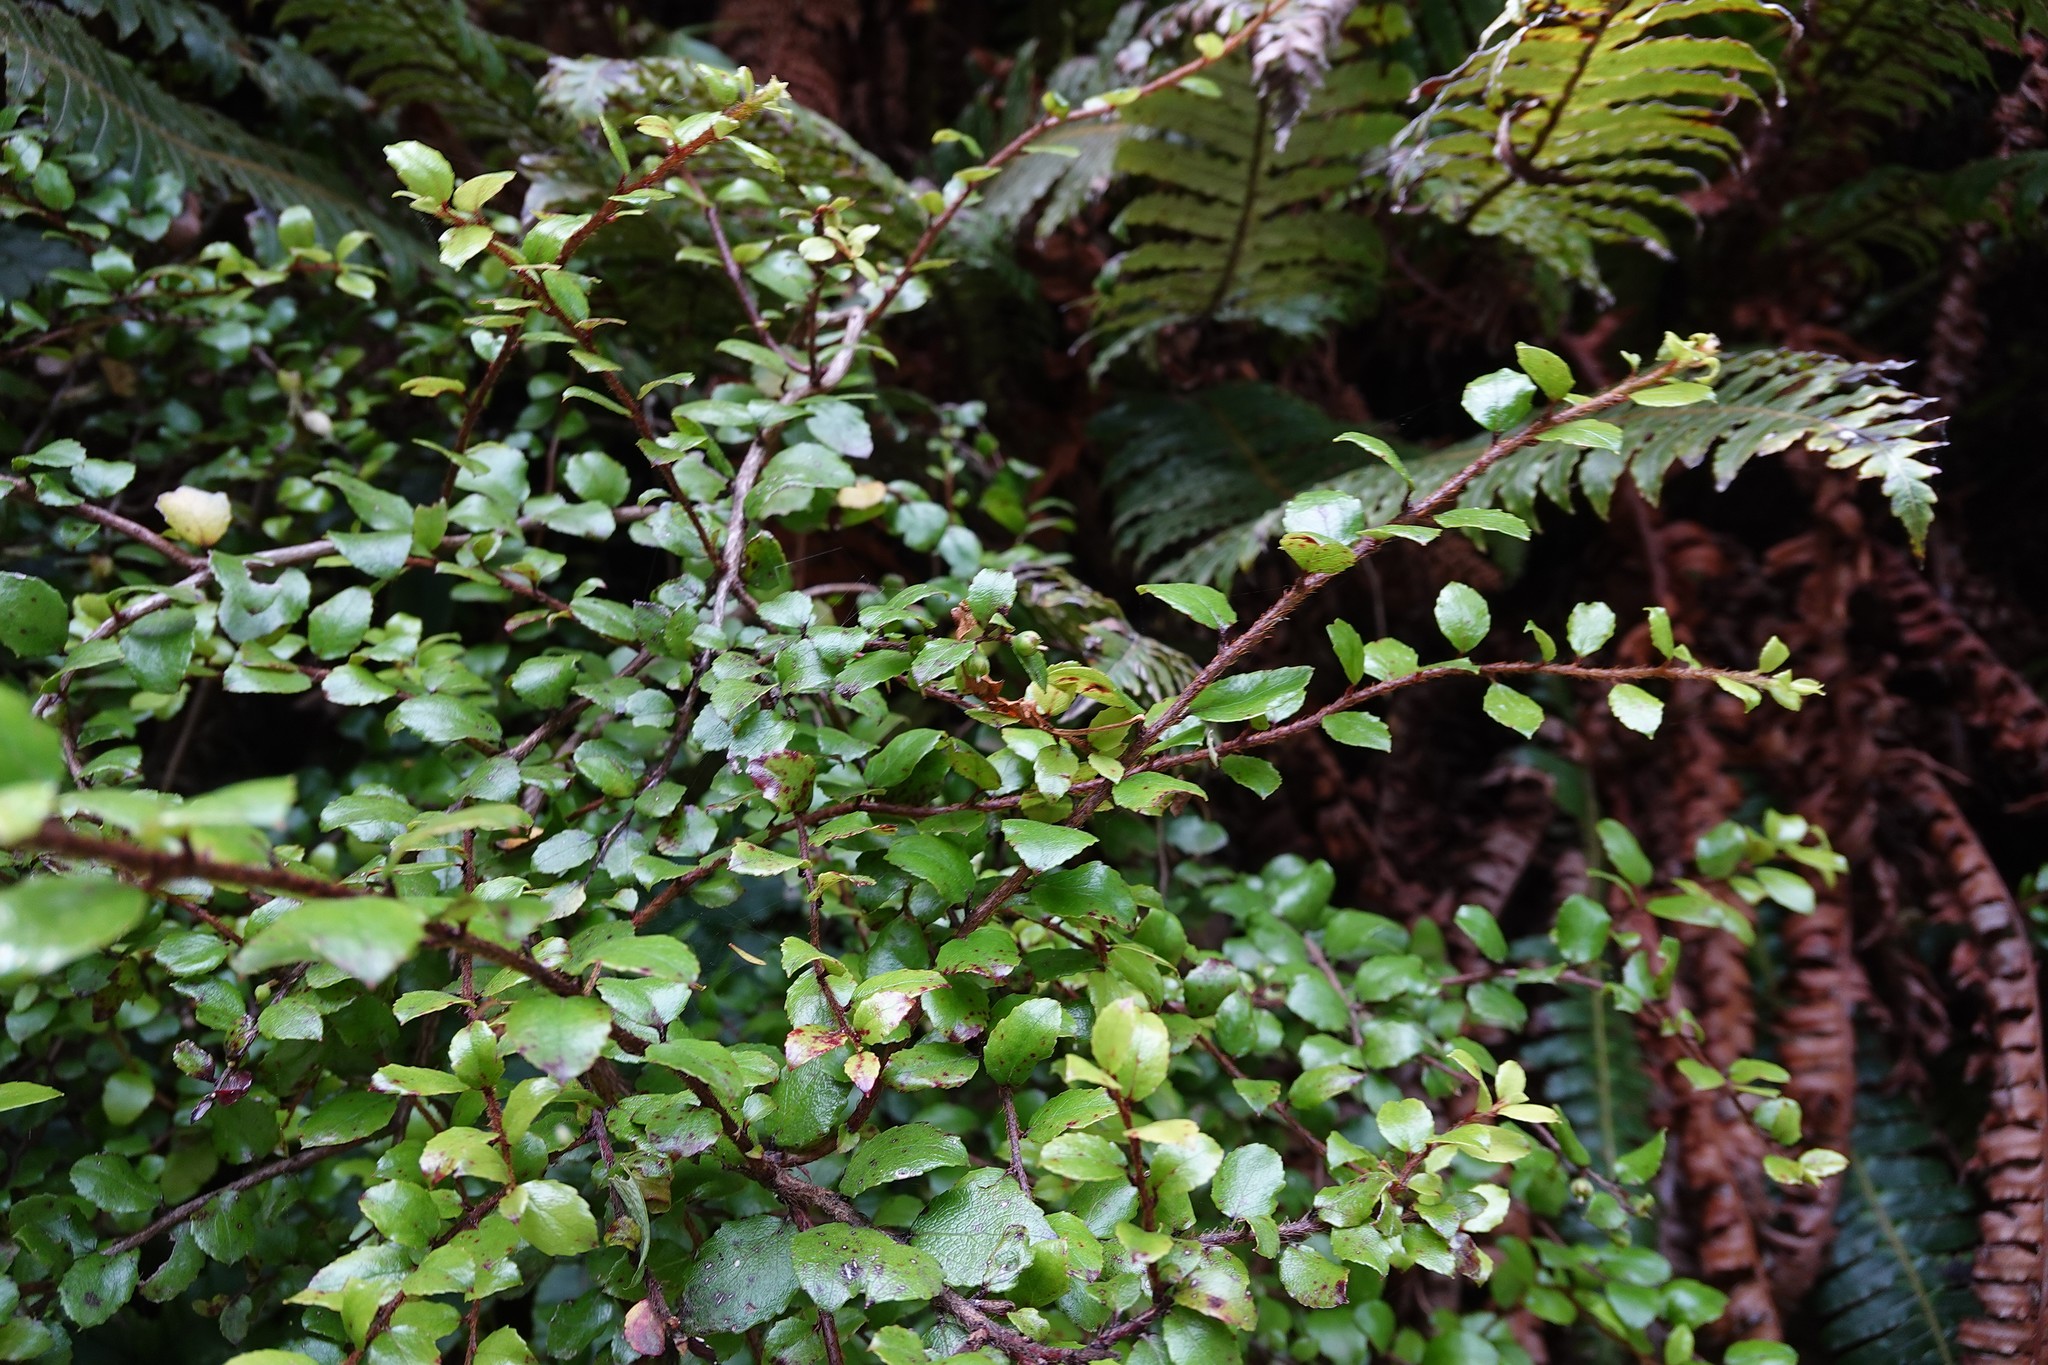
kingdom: Plantae
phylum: Tracheophyta
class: Magnoliopsida
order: Ericales
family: Ericaceae
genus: Gaultheria
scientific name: Gaultheria antipoda
